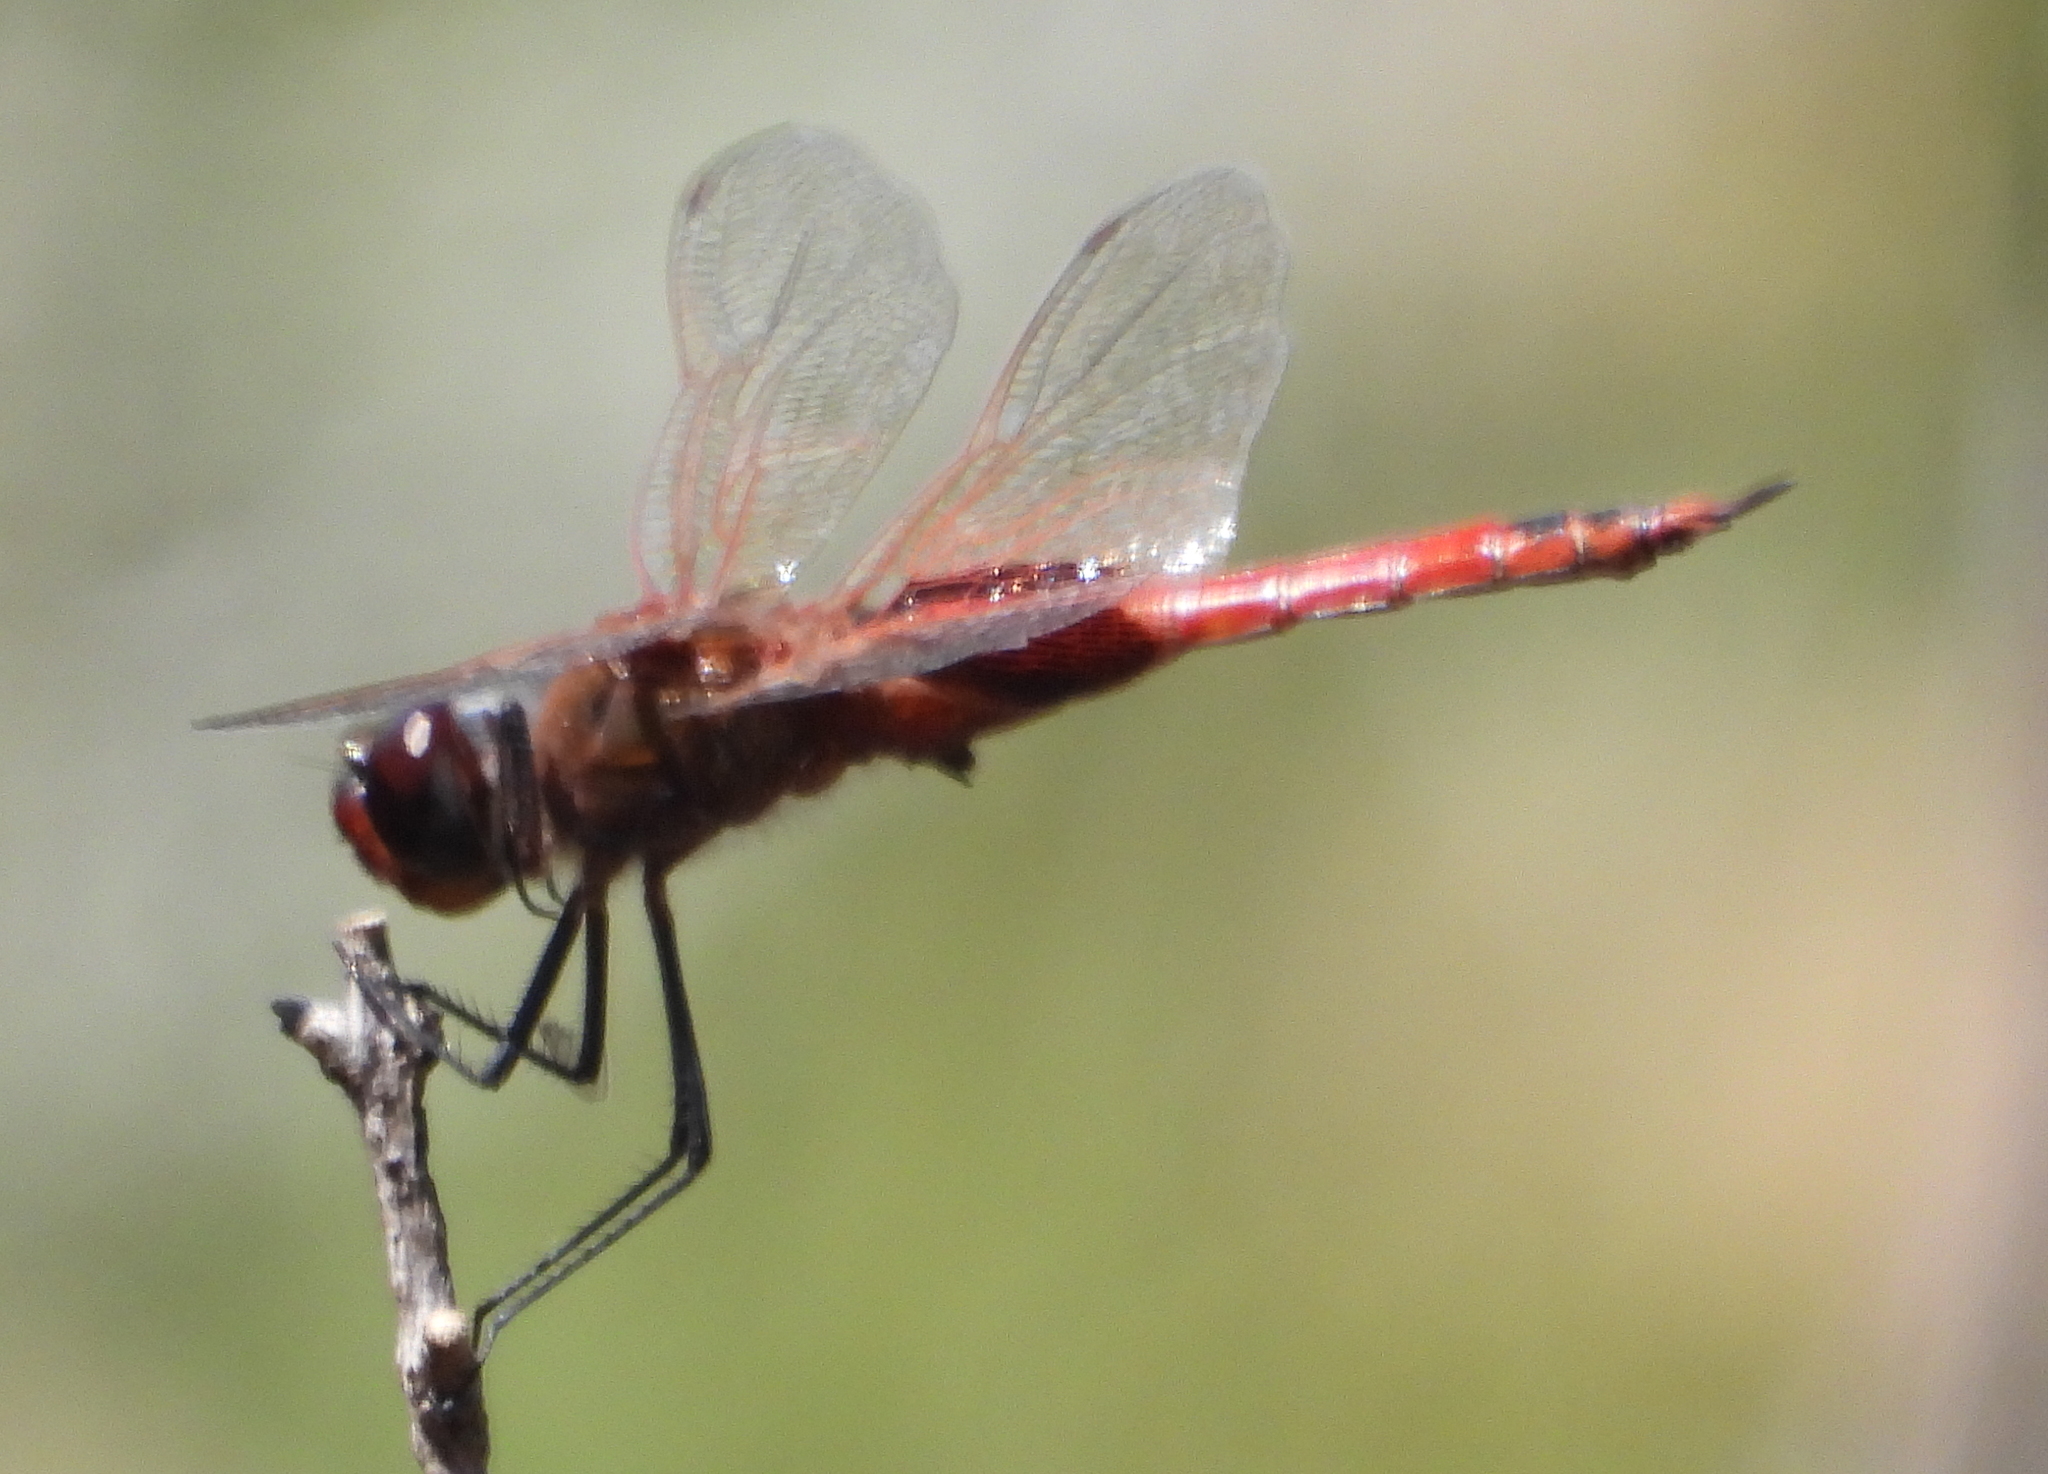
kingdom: Animalia
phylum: Arthropoda
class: Insecta
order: Odonata
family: Libellulidae
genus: Tramea
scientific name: Tramea limbata
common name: Ferruginous glider
